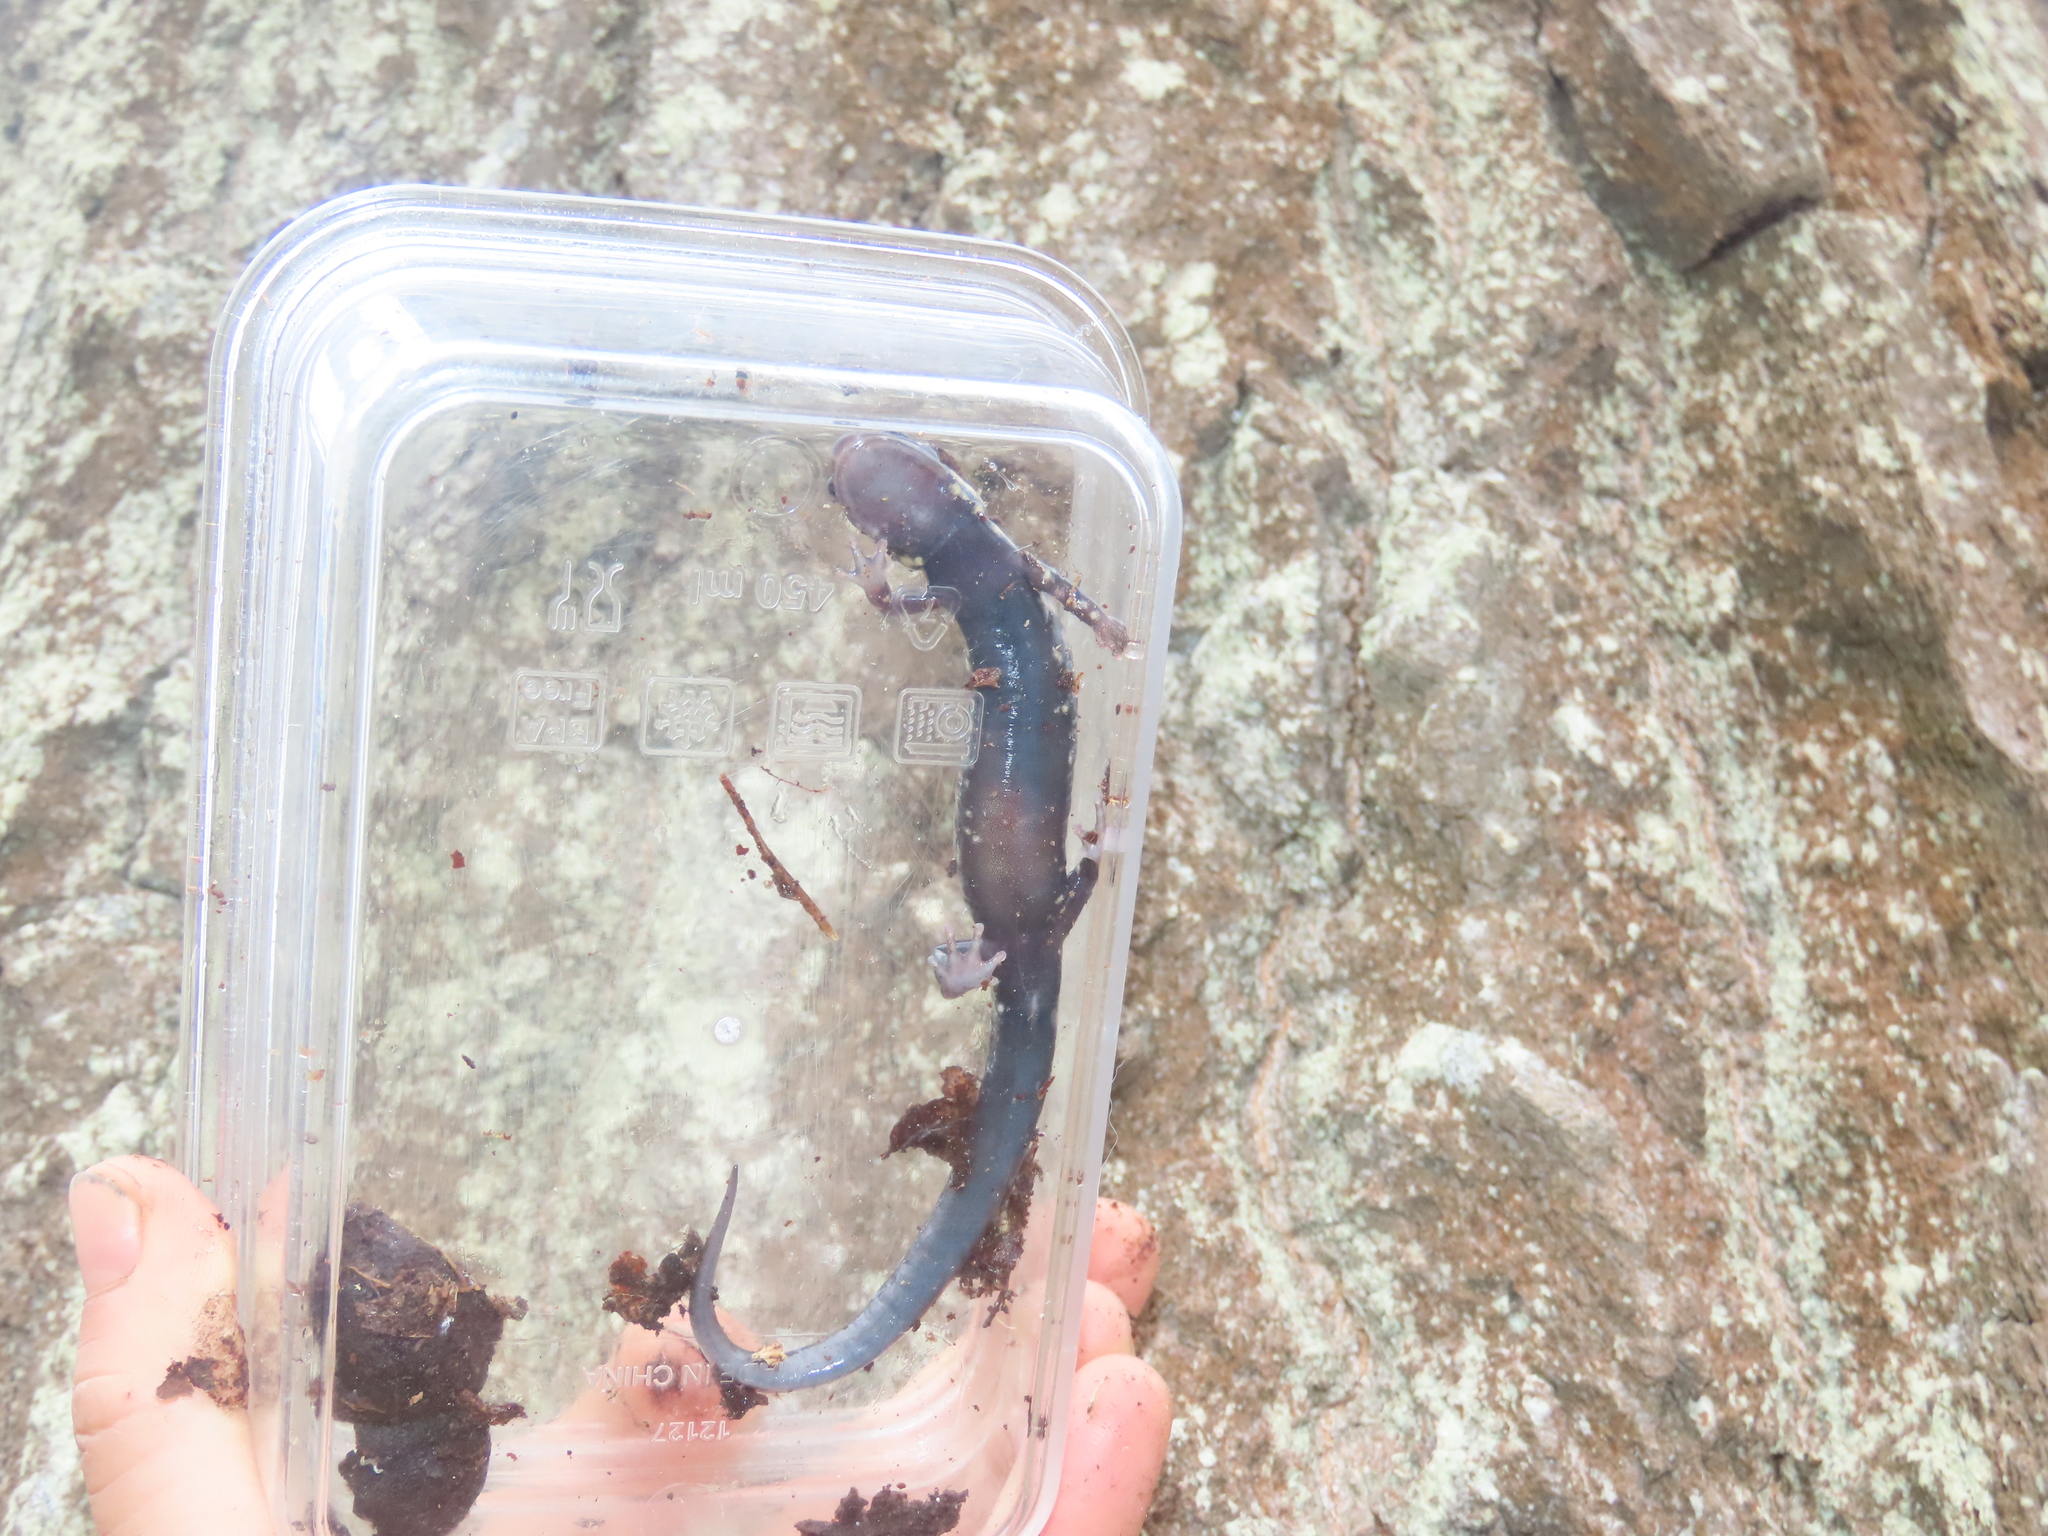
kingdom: Animalia
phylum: Chordata
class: Amphibia
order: Caudata
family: Plethodontidae
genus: Plethodon
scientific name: Plethodon glutinosus
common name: Northern slimy salamander
